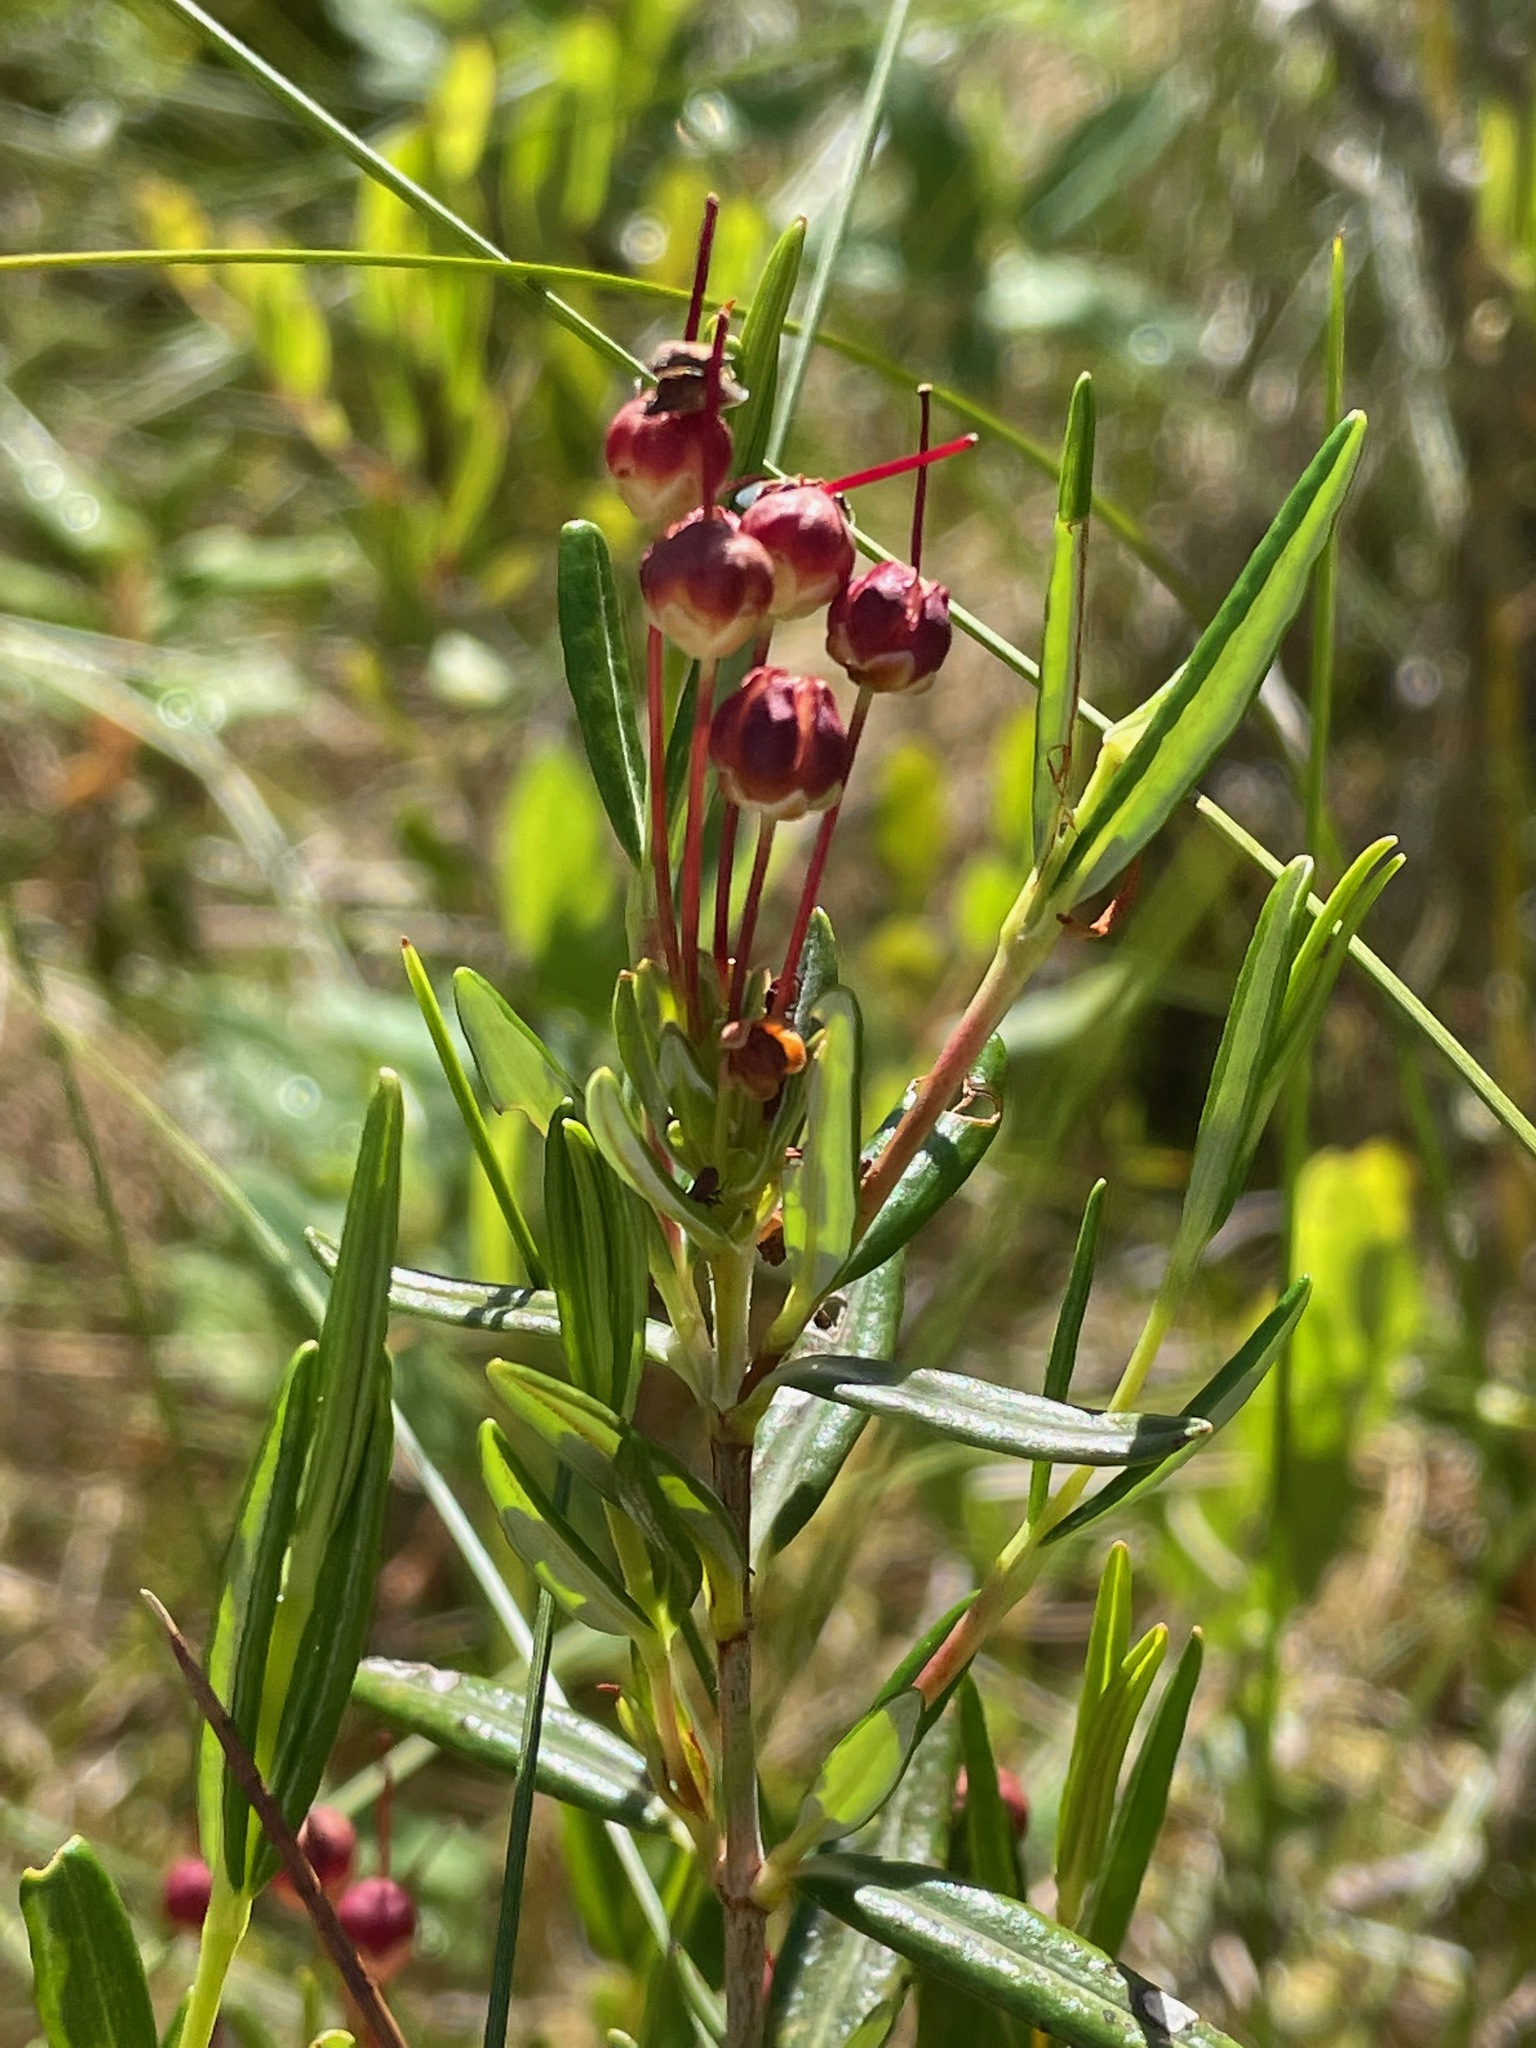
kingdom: Plantae
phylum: Tracheophyta
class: Magnoliopsida
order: Ericales
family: Ericaceae
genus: Kalmia
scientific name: Kalmia polifolia
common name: Bog-laurel
